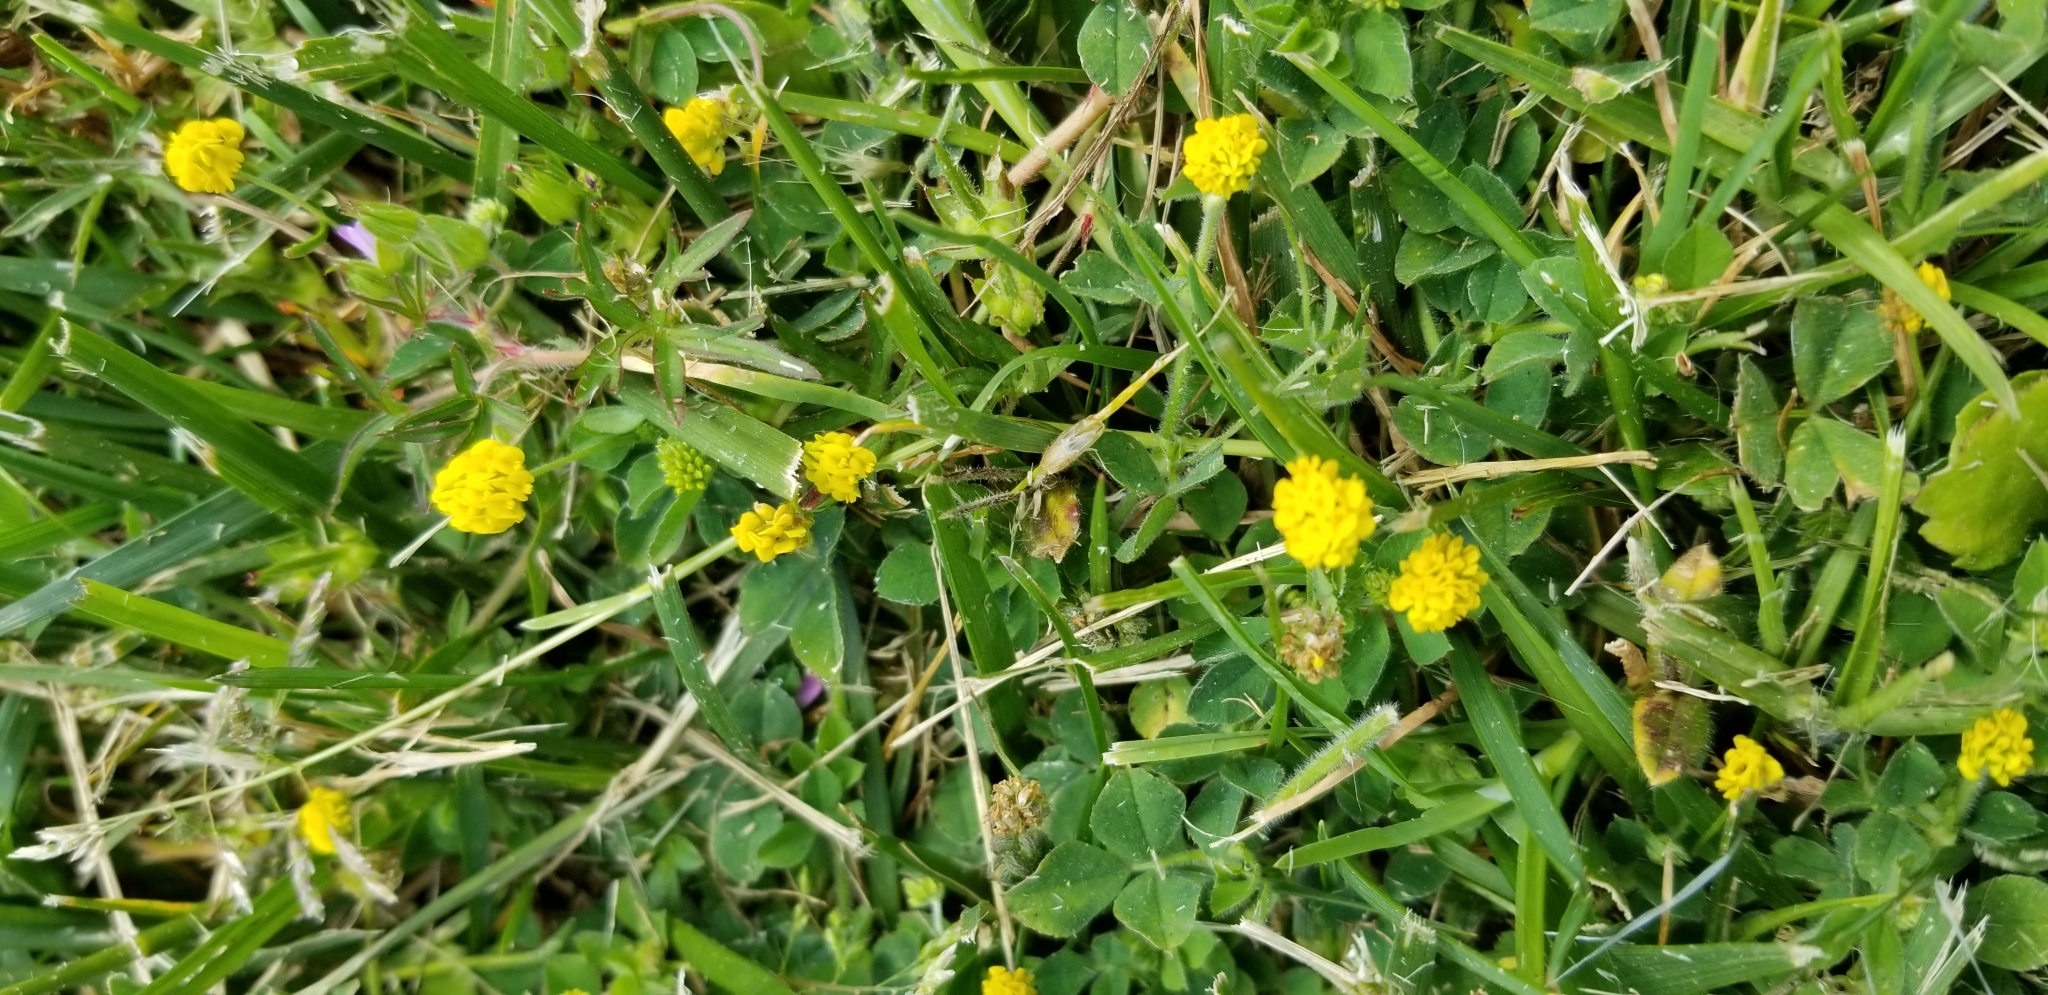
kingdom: Plantae
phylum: Tracheophyta
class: Magnoliopsida
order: Fabales
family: Fabaceae
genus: Trifolium
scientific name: Trifolium campestre
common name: Field clover
